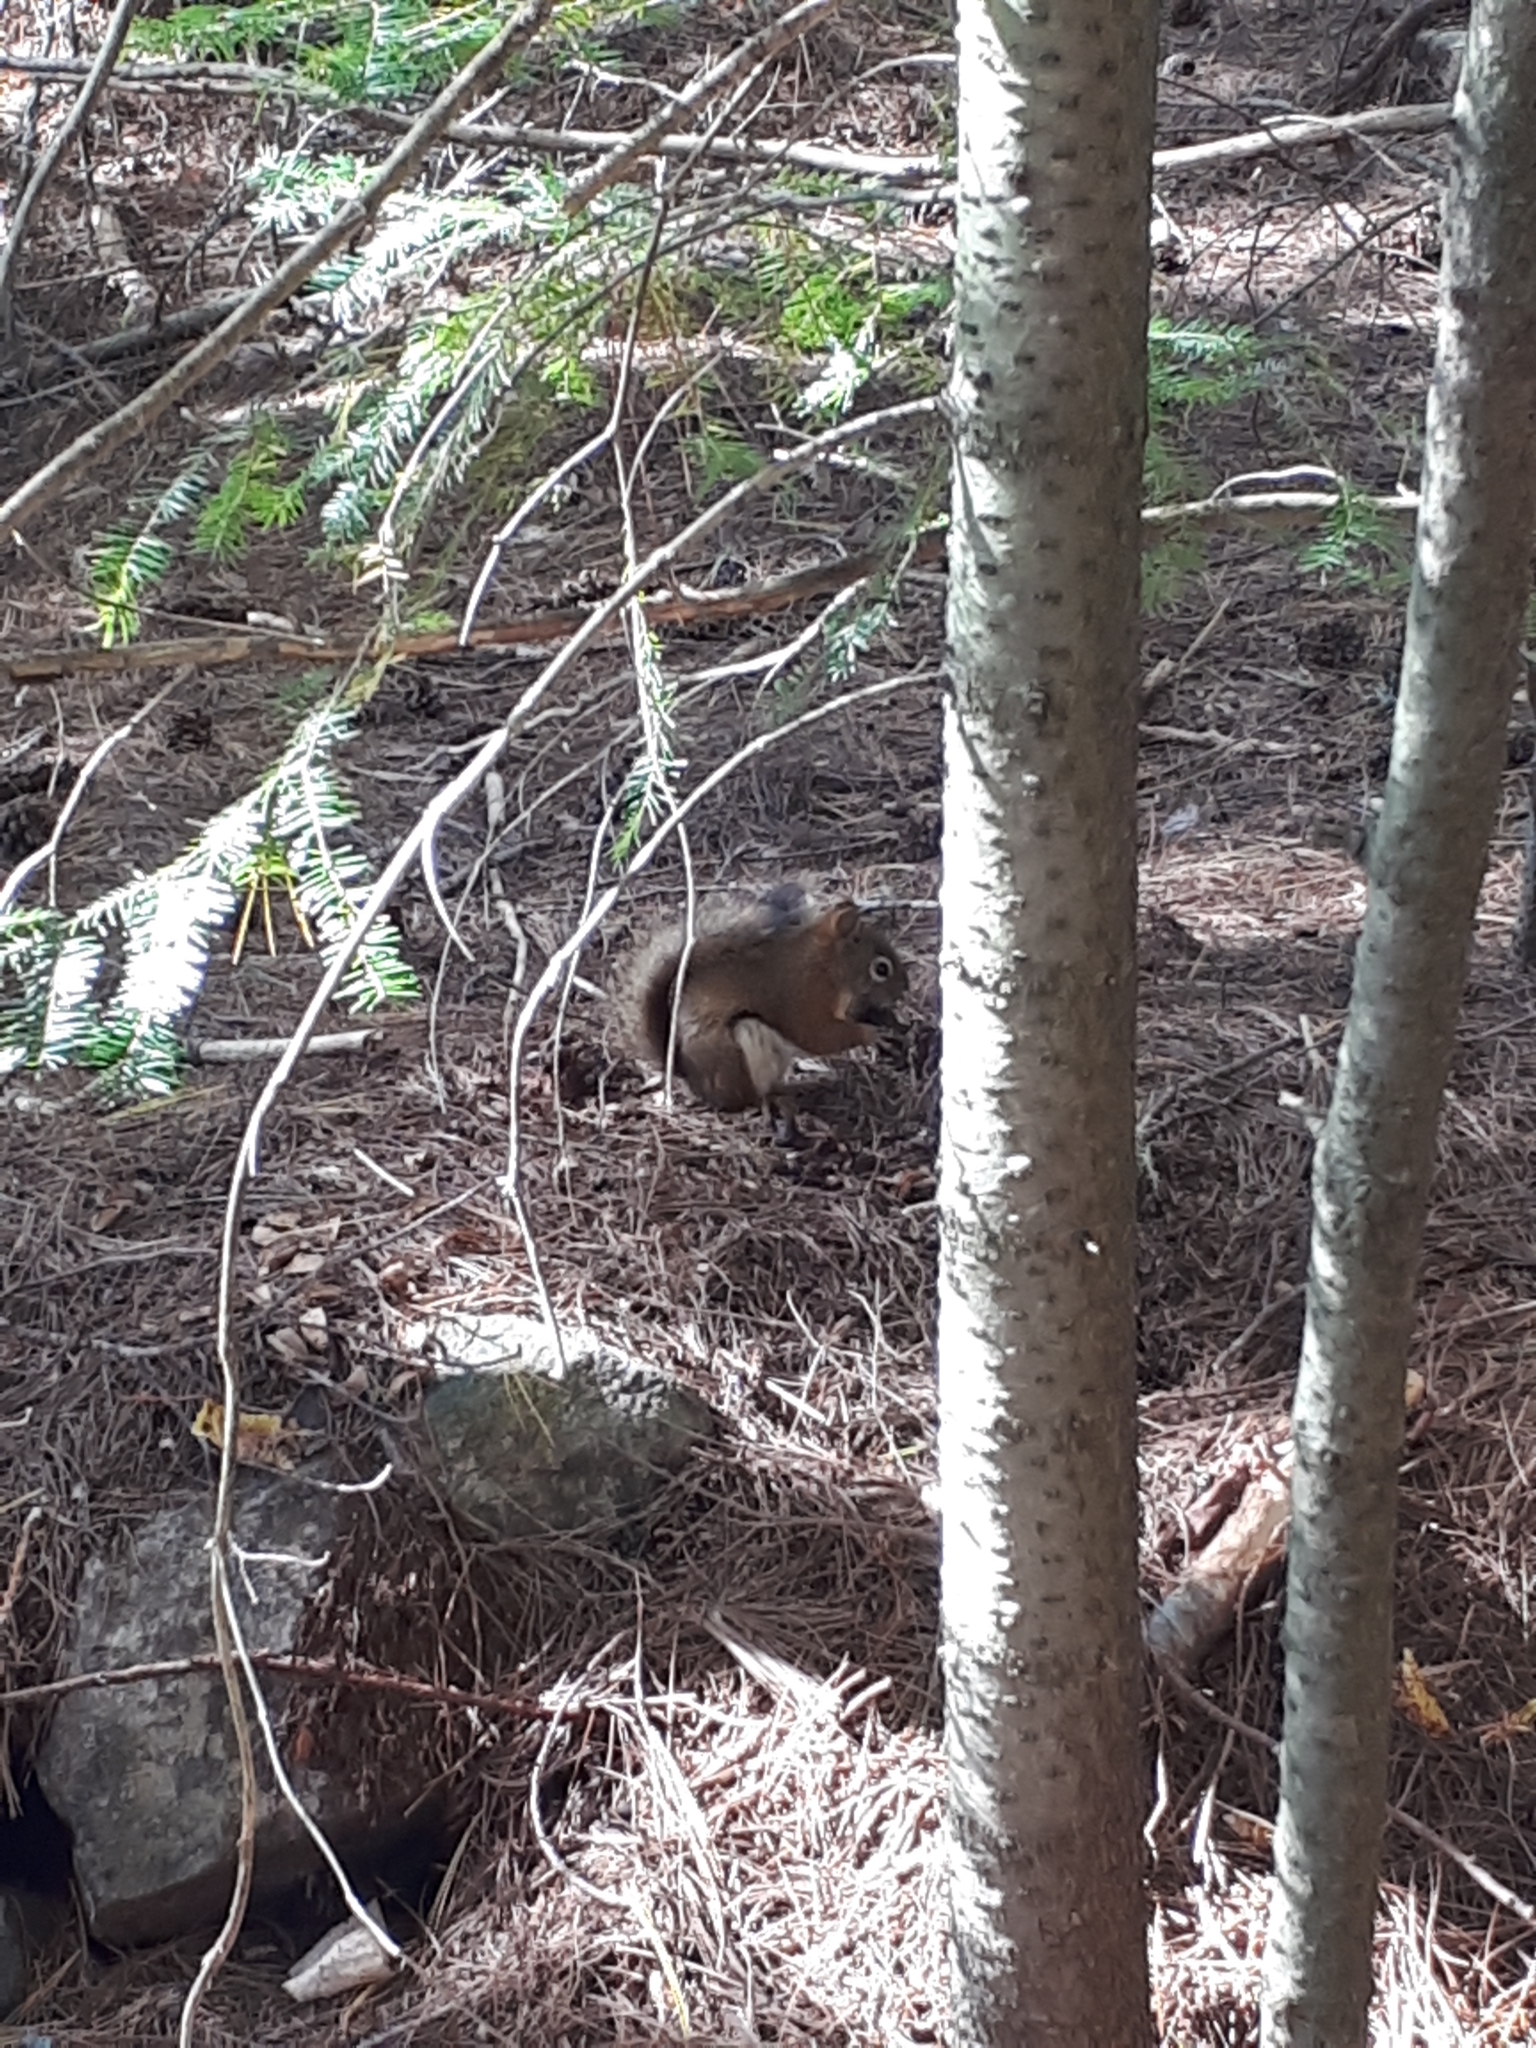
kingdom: Animalia
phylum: Chordata
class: Mammalia
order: Rodentia
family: Sciuridae
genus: Tamiasciurus
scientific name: Tamiasciurus hudsonicus
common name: Red squirrel
